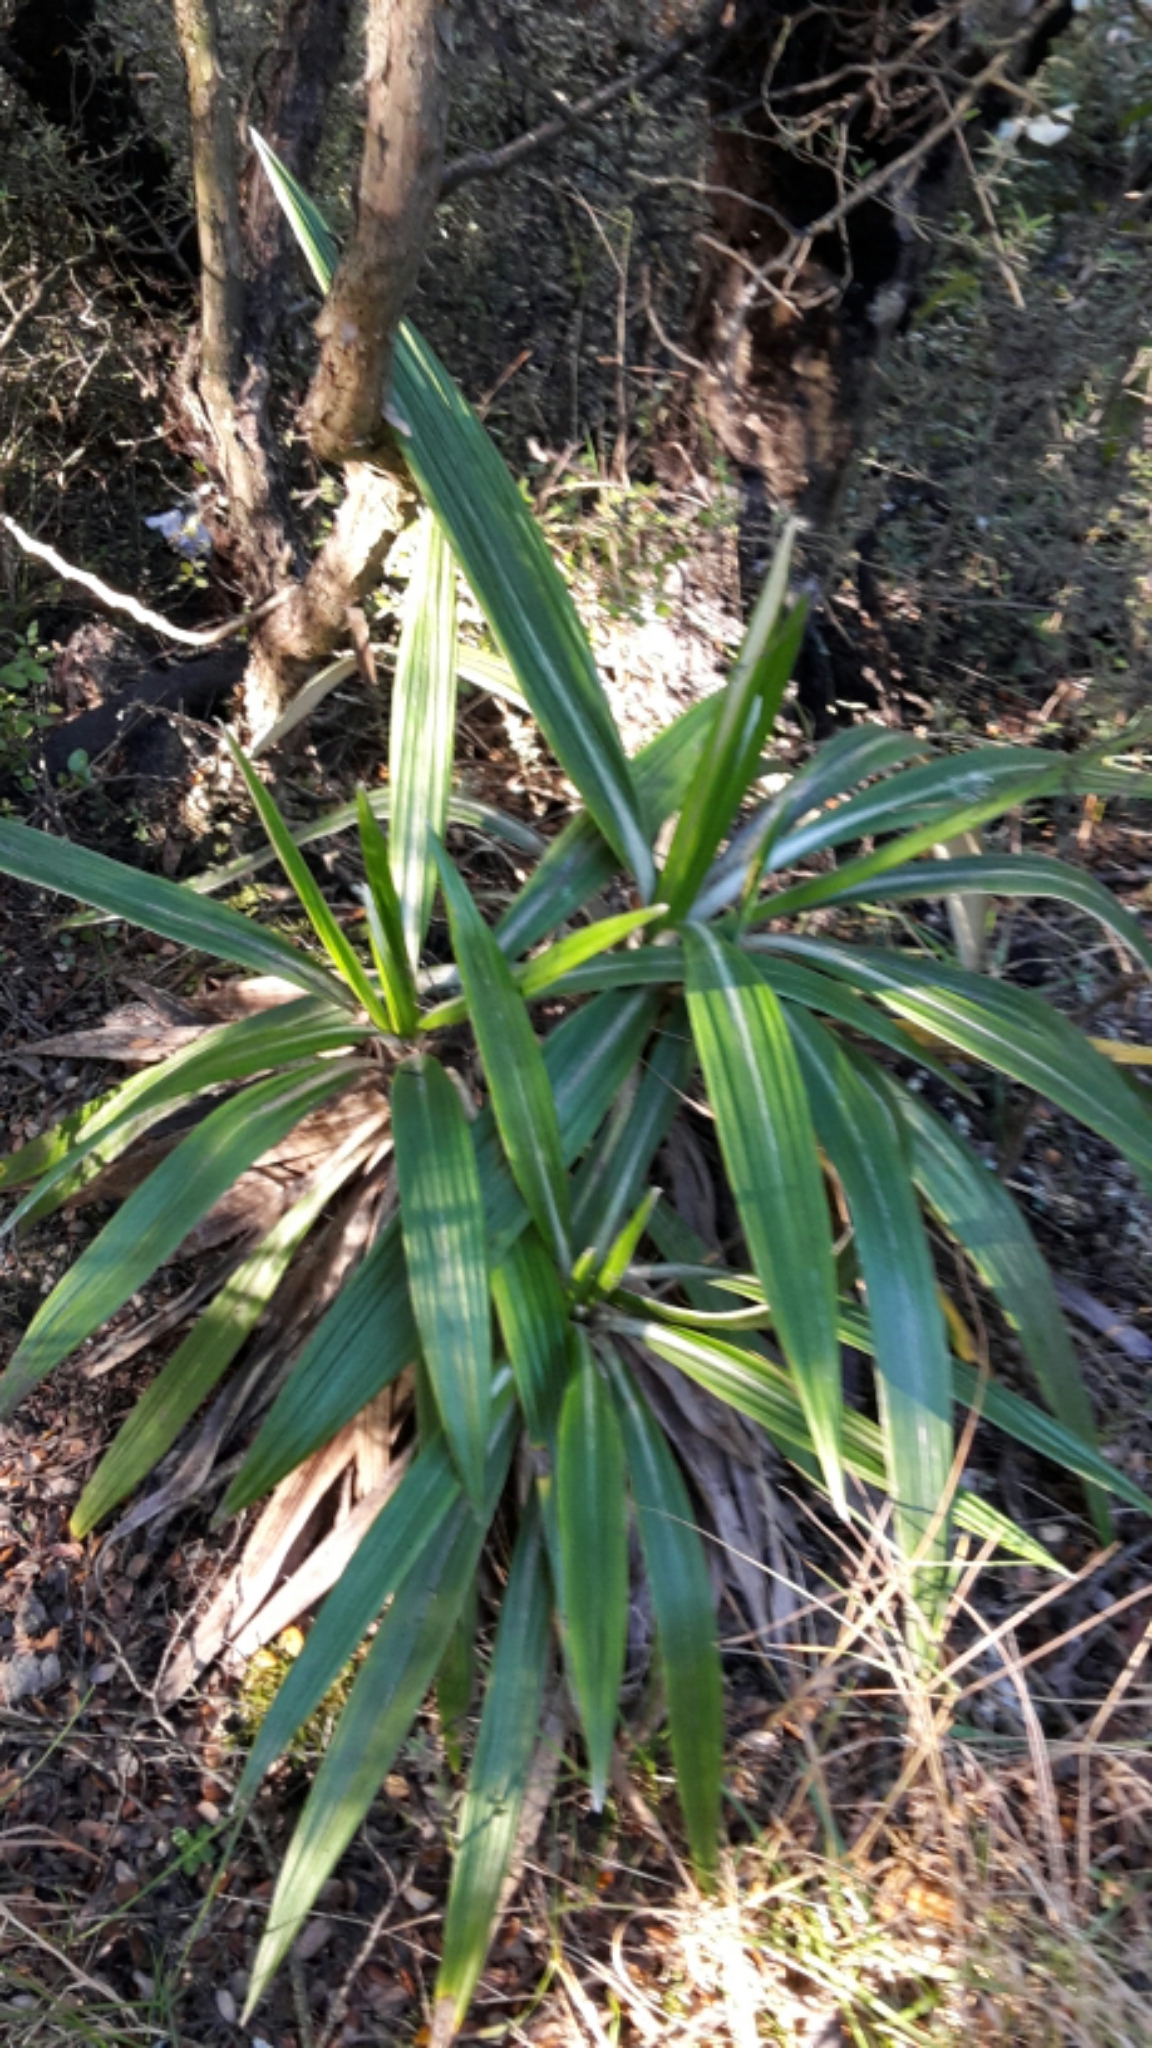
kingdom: Plantae
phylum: Tracheophyta
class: Magnoliopsida
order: Asterales
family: Asteraceae
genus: Celmisia
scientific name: Celmisia spectabilis
